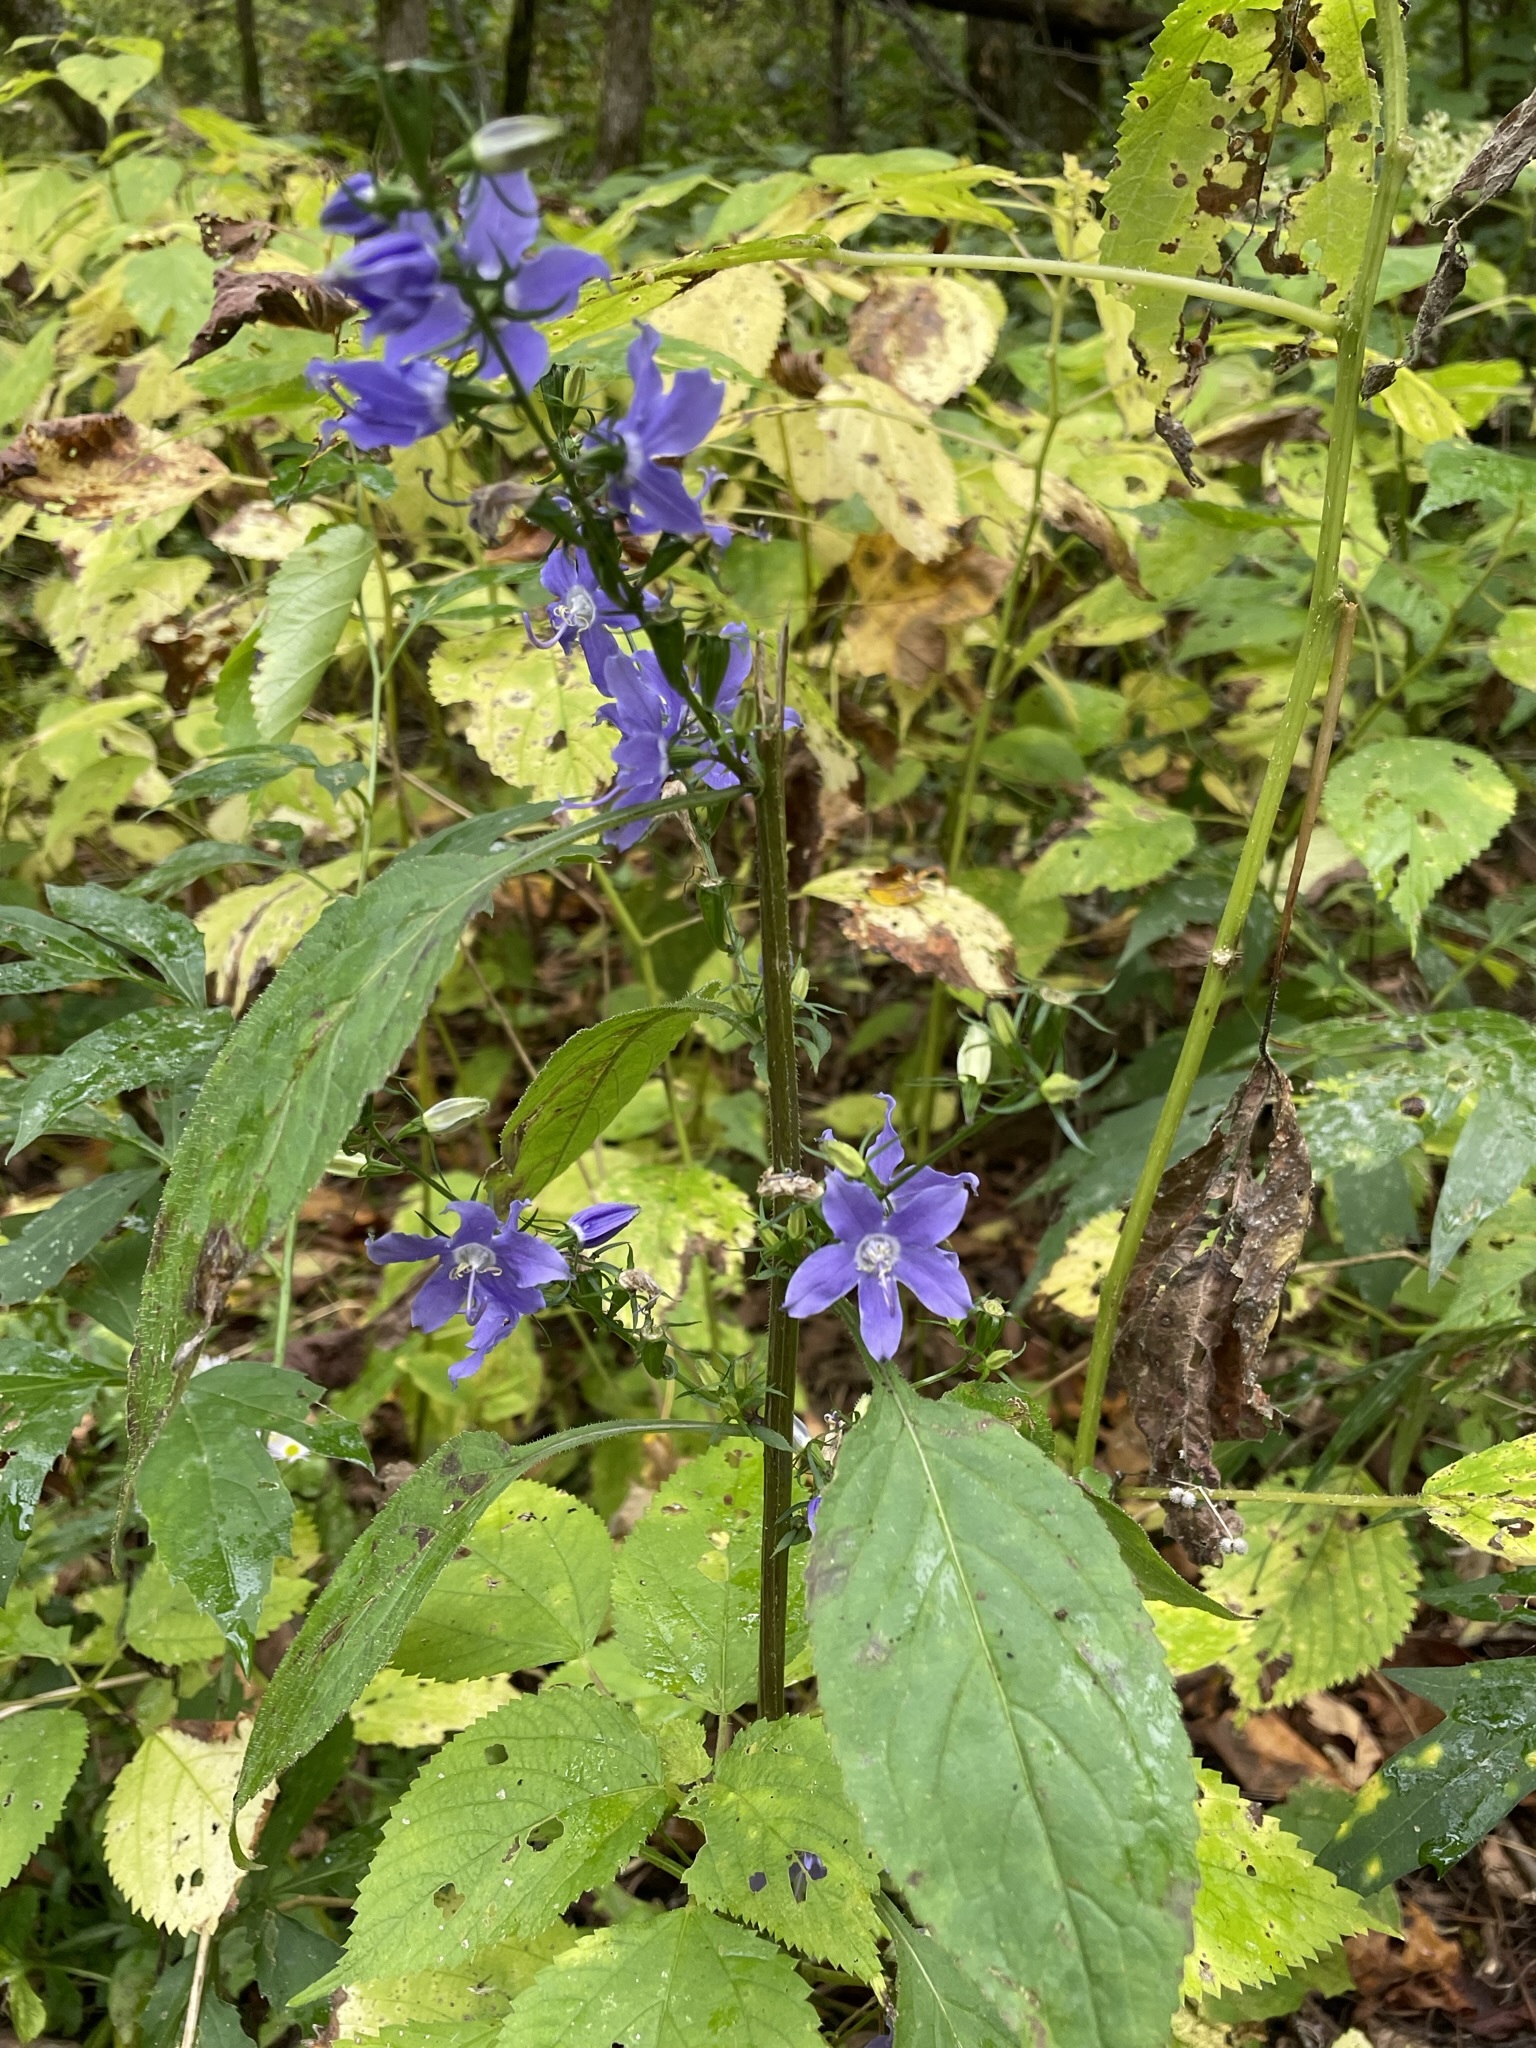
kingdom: Plantae
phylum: Tracheophyta
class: Magnoliopsida
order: Asterales
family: Campanulaceae
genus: Campanulastrum
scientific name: Campanulastrum americanum
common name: American bellflower
